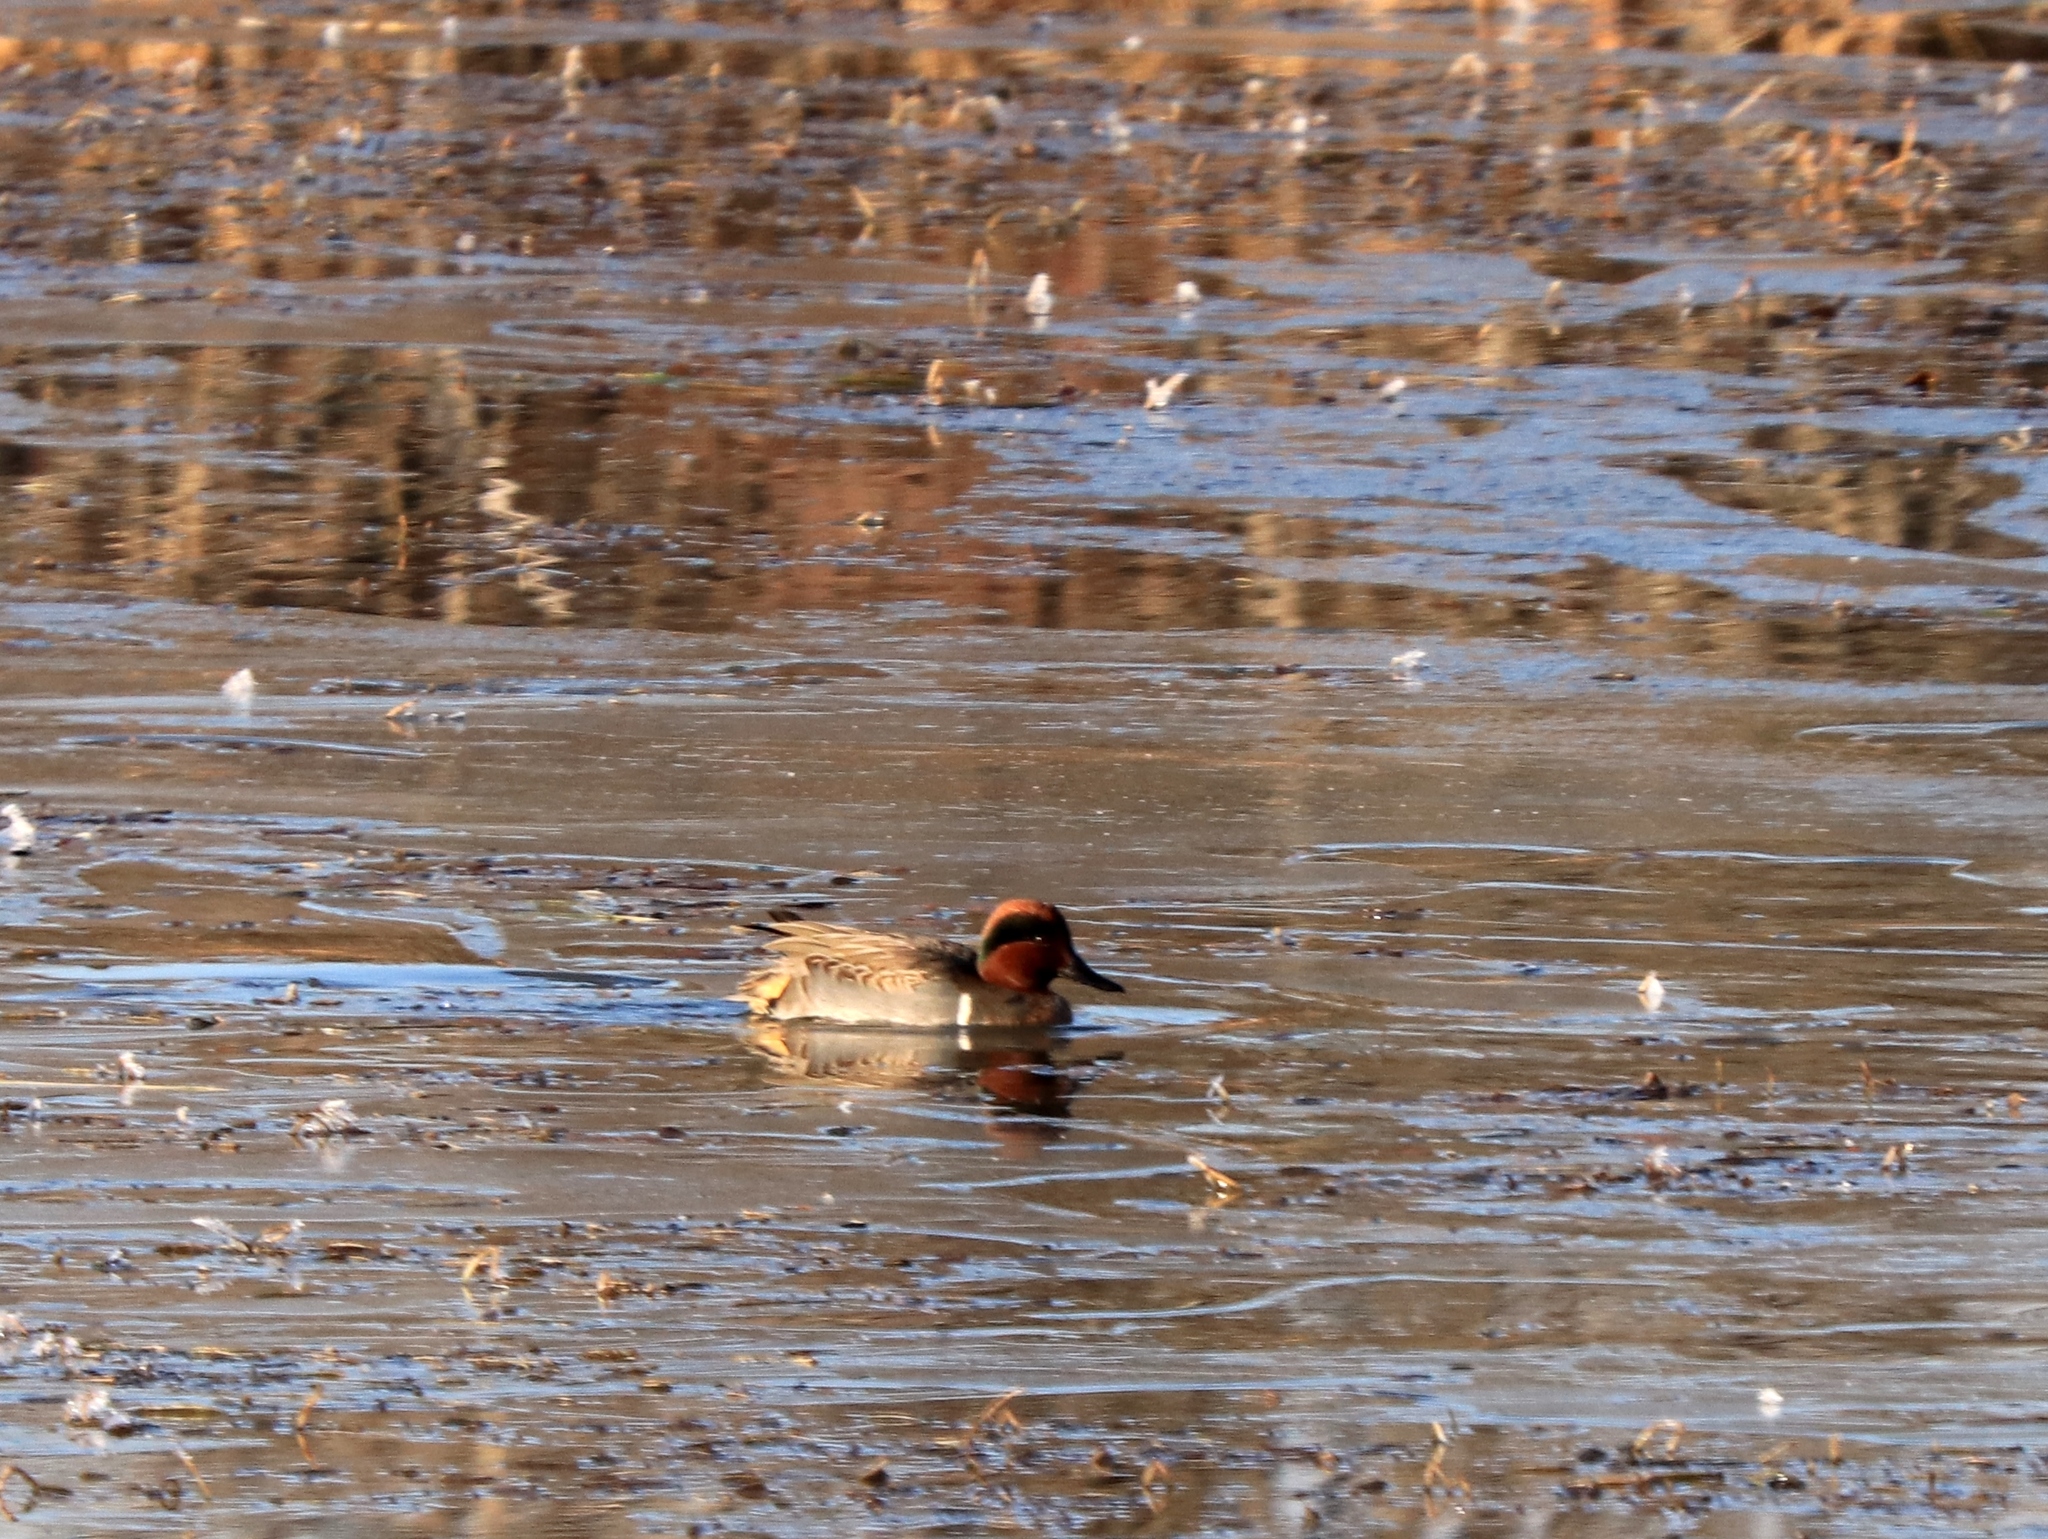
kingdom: Animalia
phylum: Chordata
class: Aves
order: Anseriformes
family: Anatidae
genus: Anas
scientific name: Anas crecca
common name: Eurasian teal
